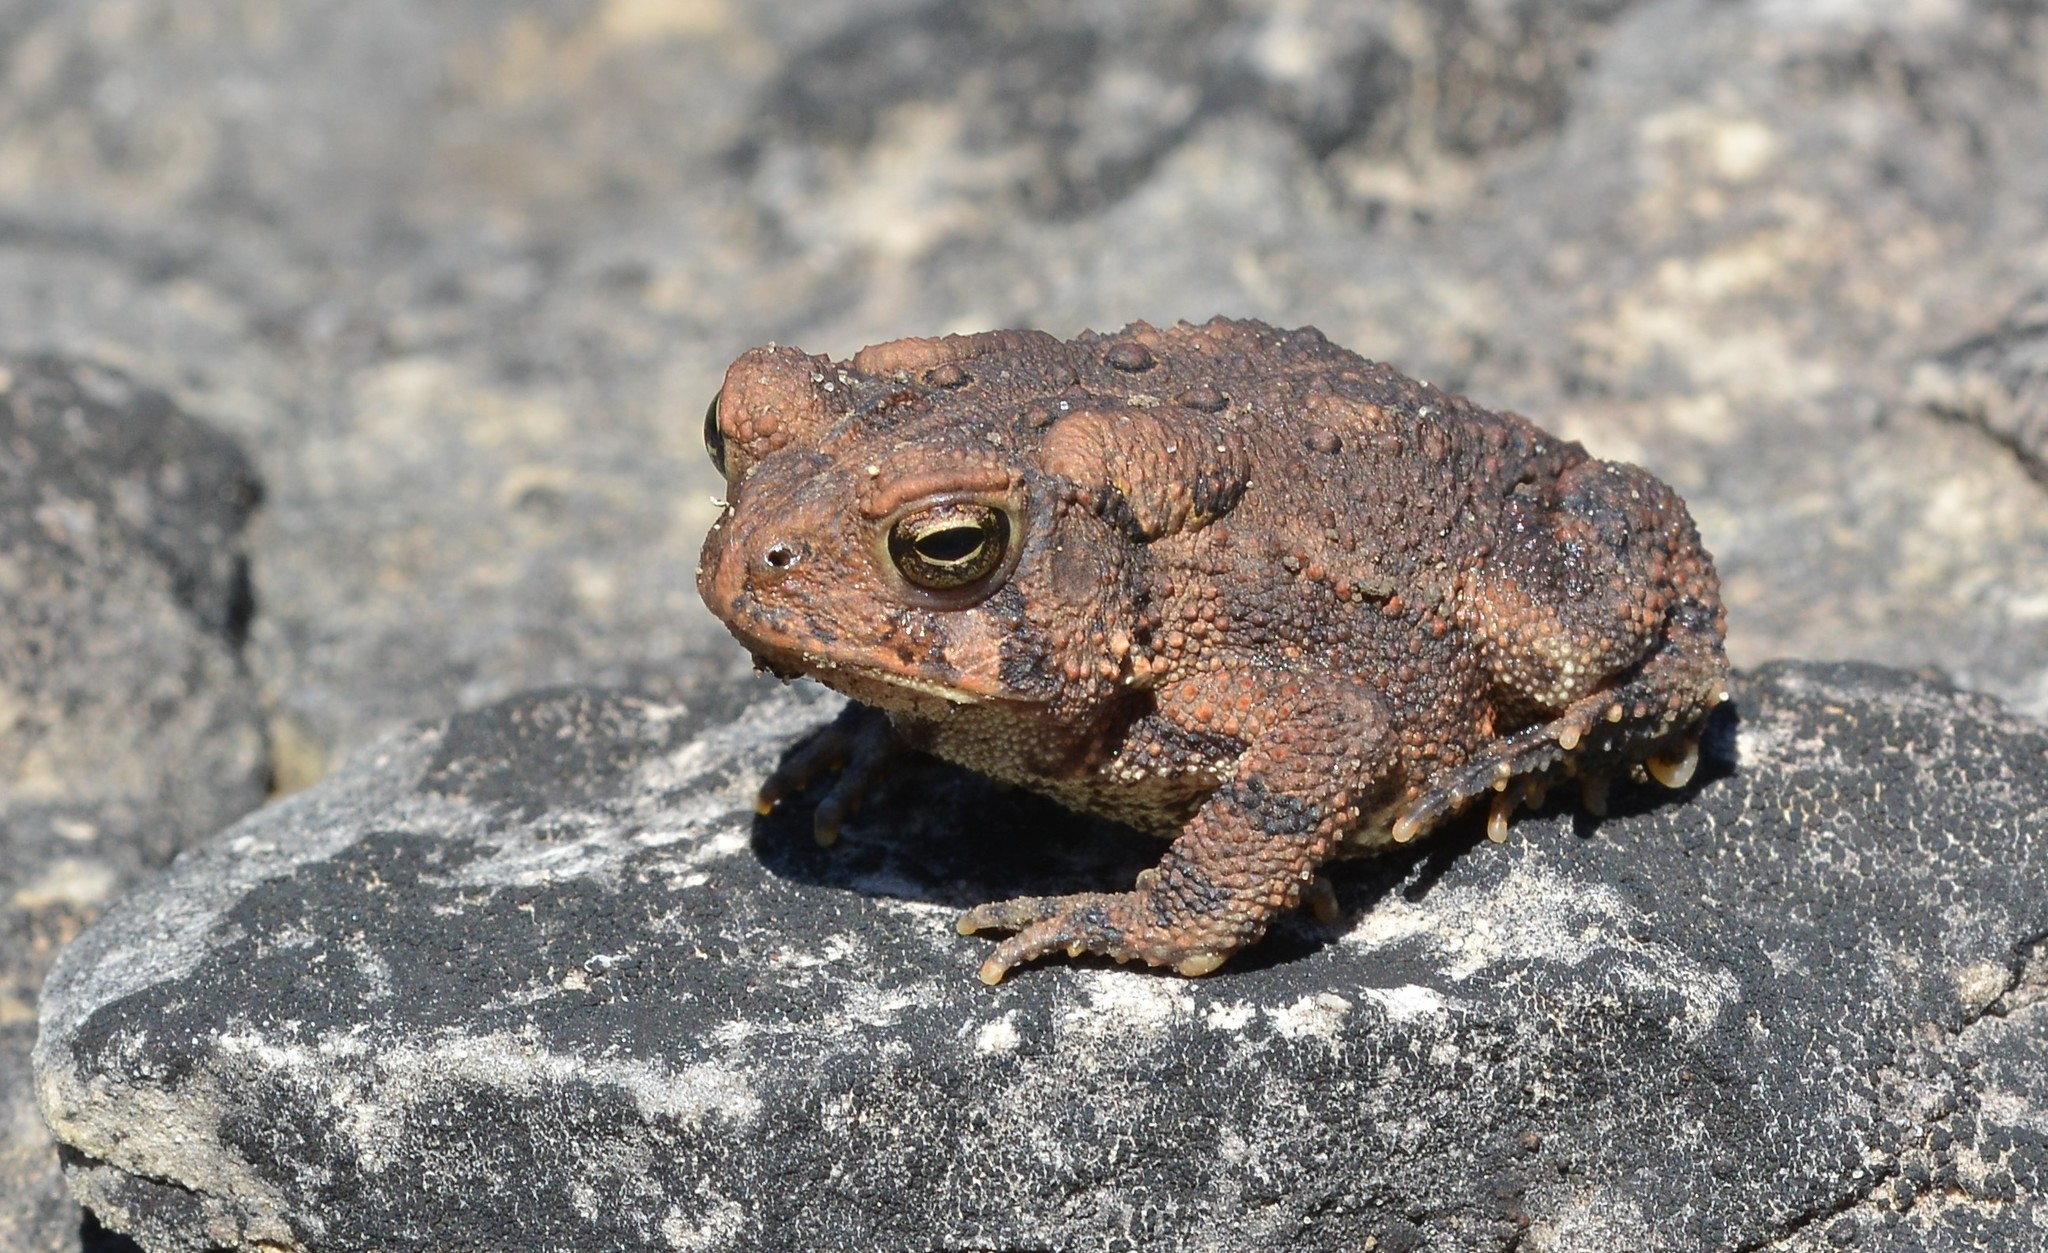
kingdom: Animalia
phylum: Chordata
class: Amphibia
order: Anura
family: Bufonidae
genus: Anaxyrus
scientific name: Anaxyrus americanus
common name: American toad
